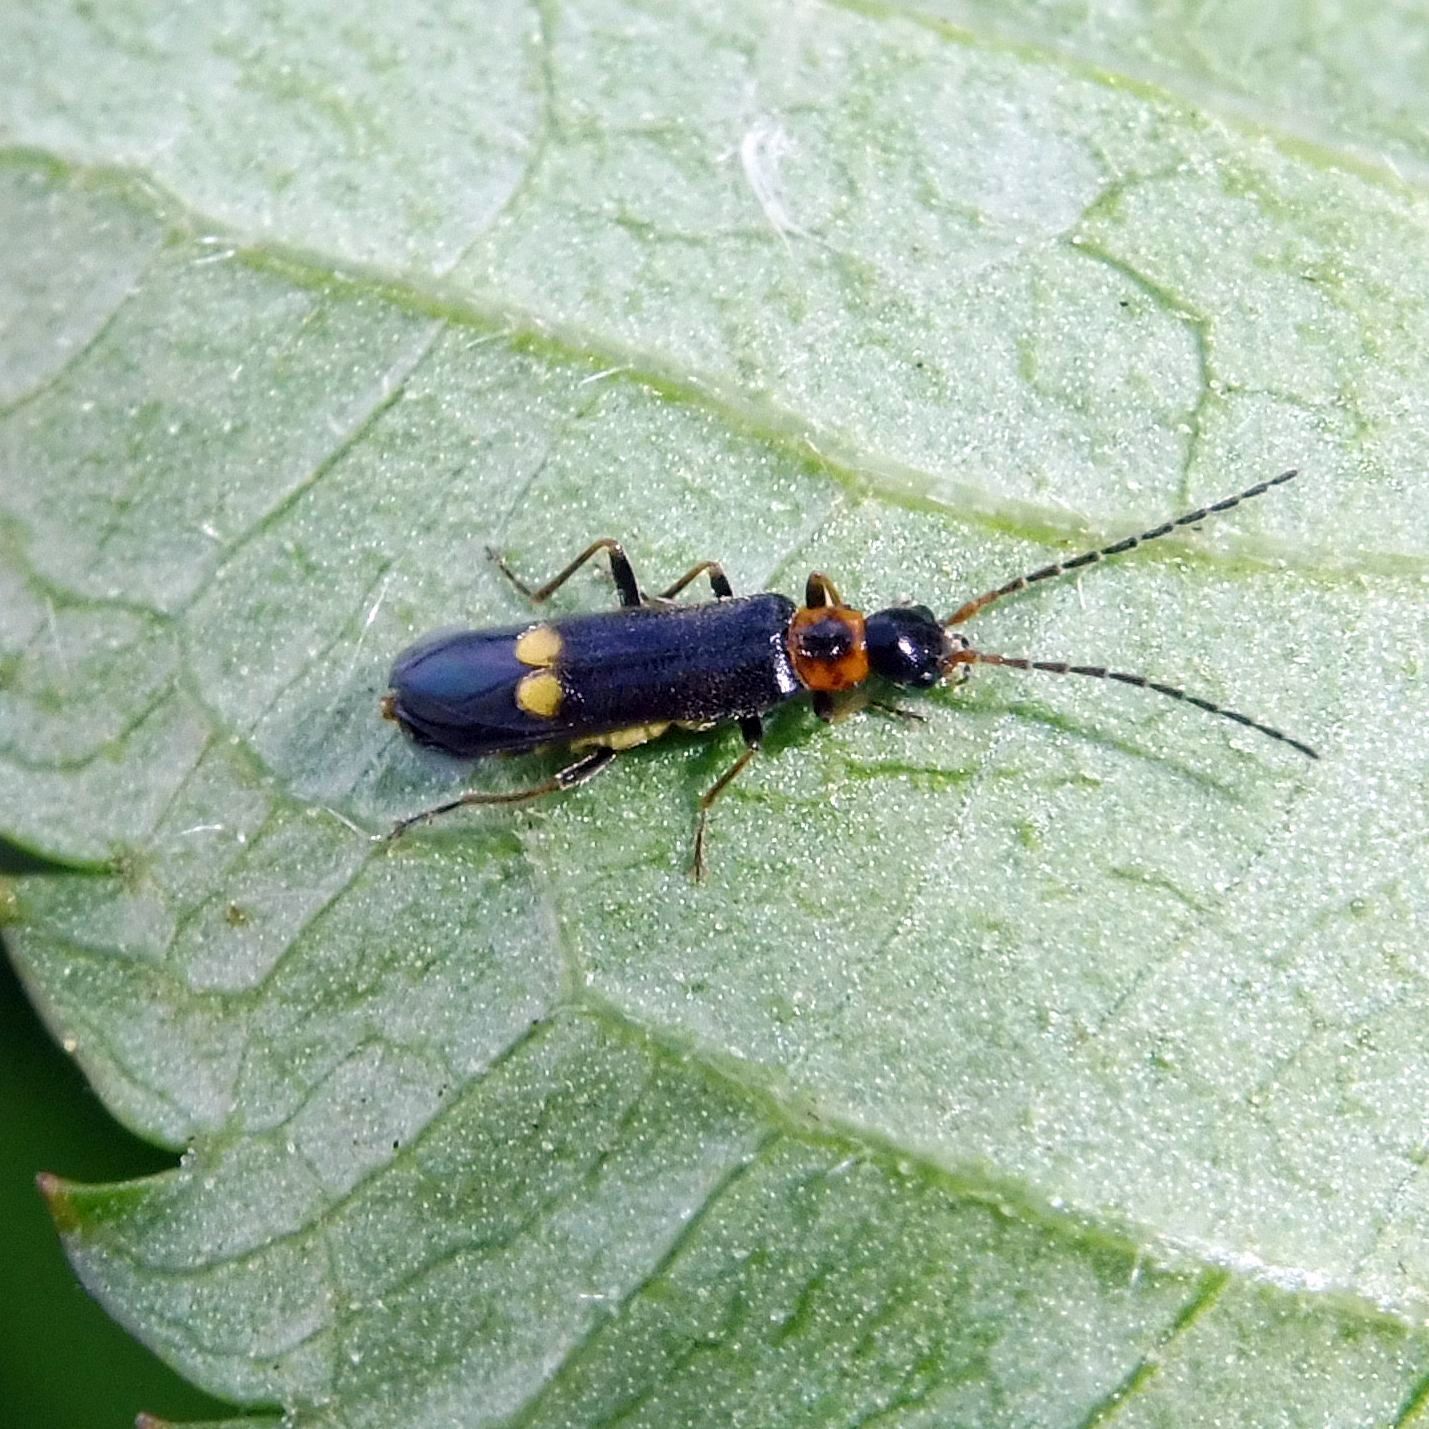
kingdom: Animalia
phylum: Arthropoda
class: Insecta
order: Coleoptera
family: Cantharidae
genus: Malthodes
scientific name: Malthodes minimus
